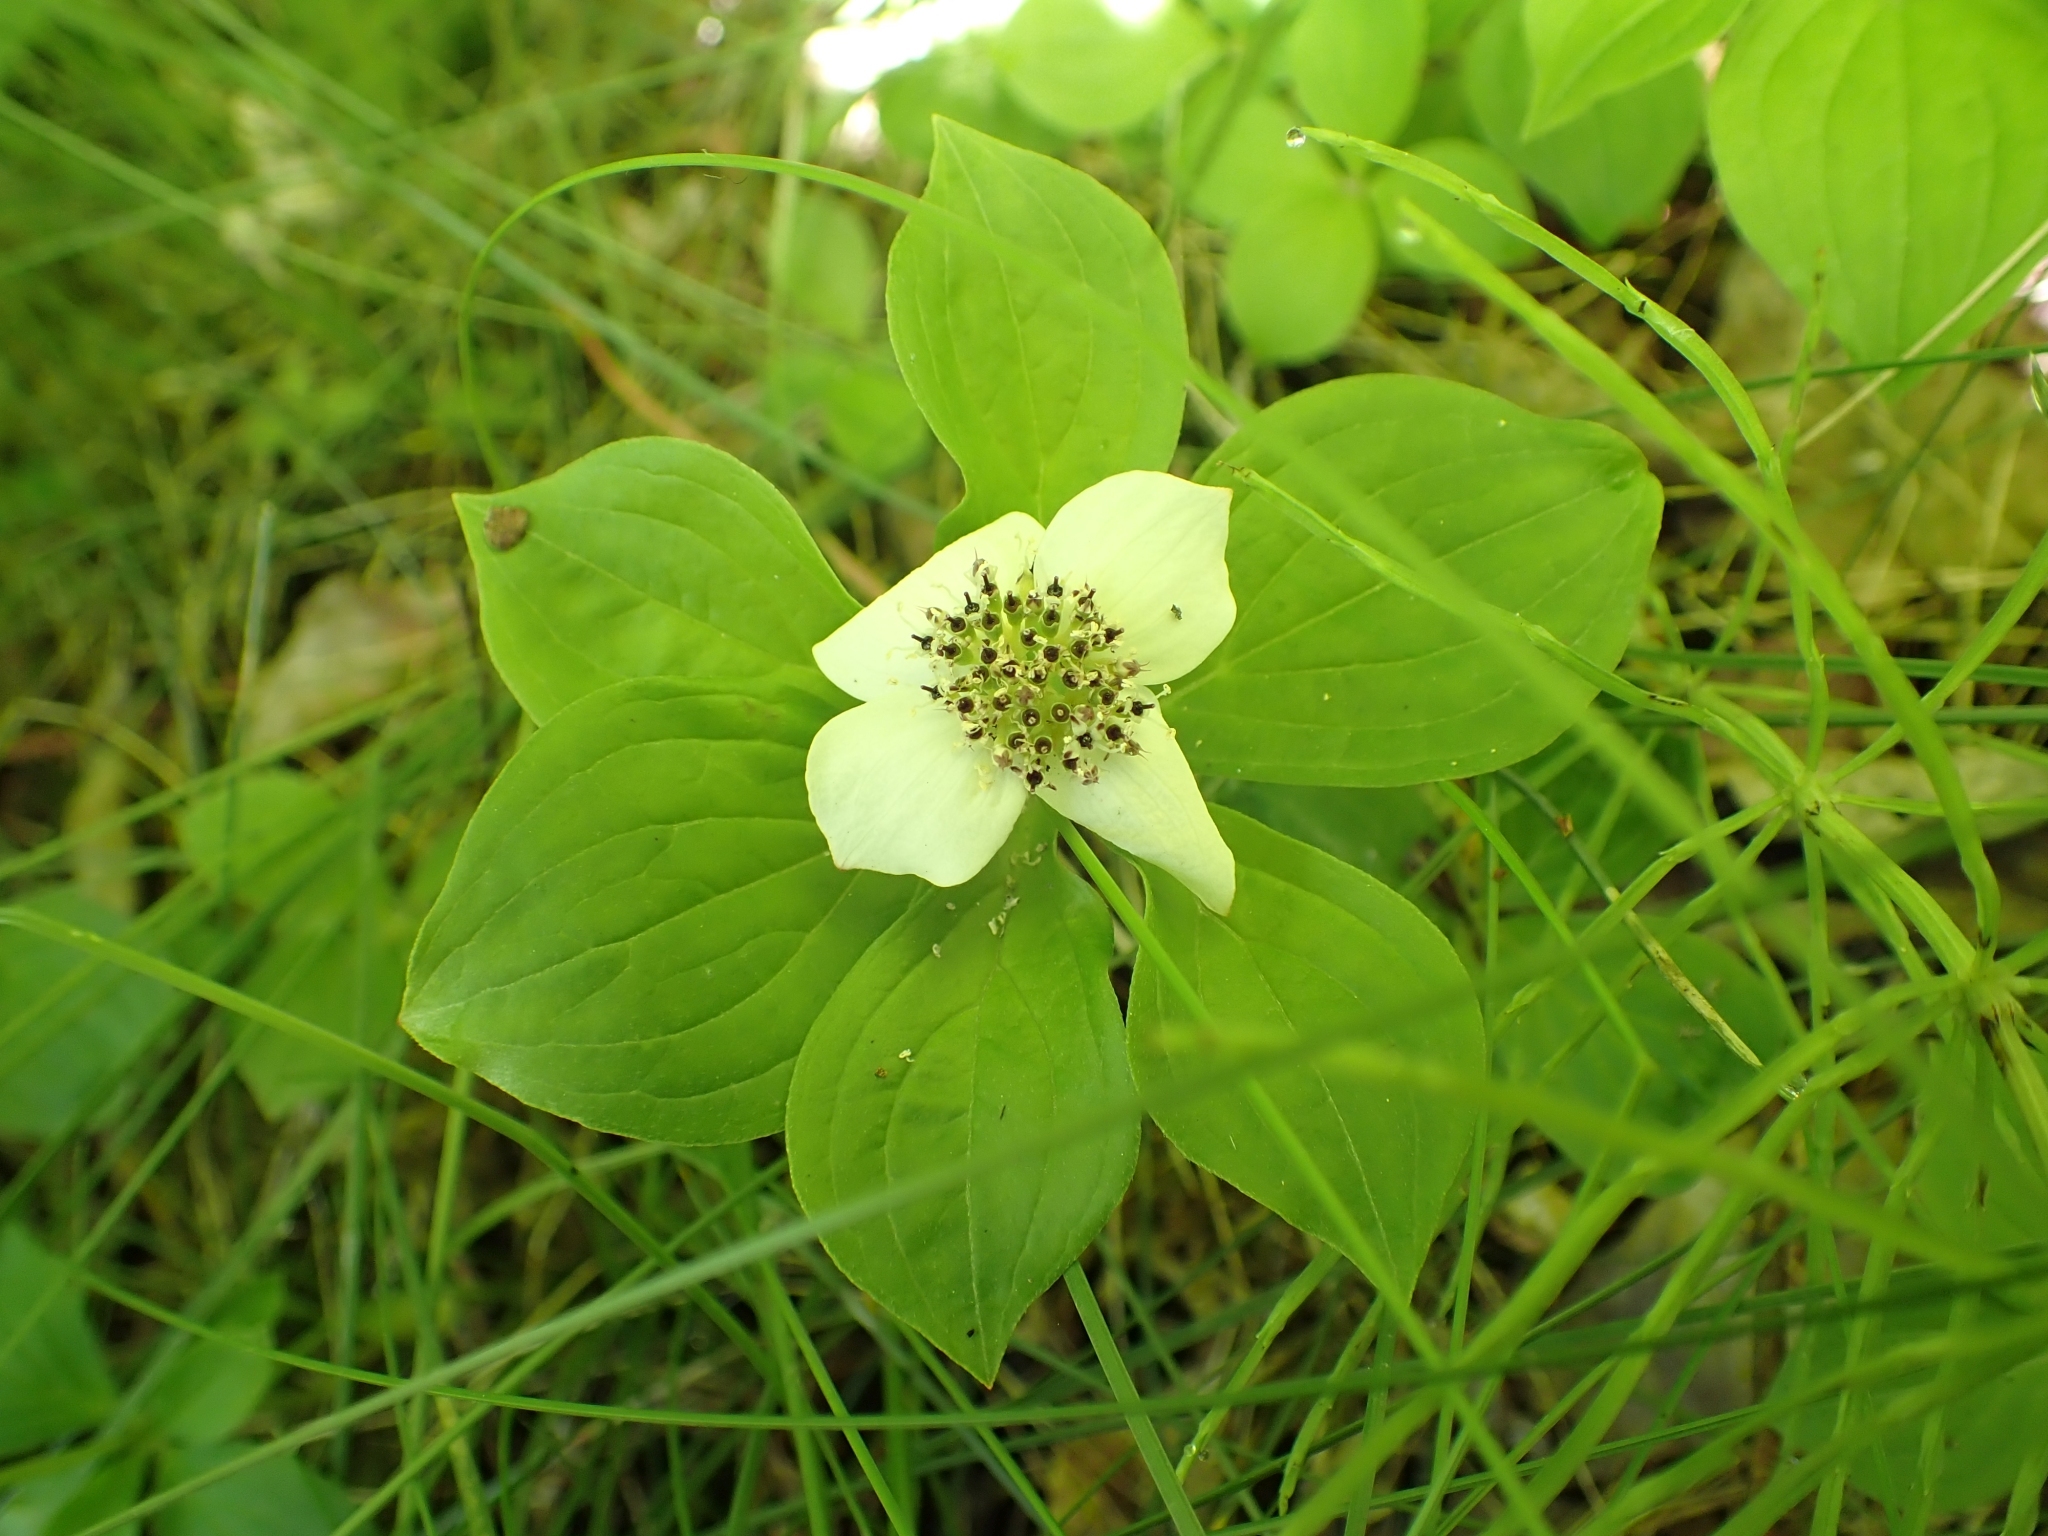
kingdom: Plantae
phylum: Tracheophyta
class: Magnoliopsida
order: Cornales
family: Cornaceae
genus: Cornus
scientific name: Cornus unalaschkensis
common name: Alaska bunchberry
